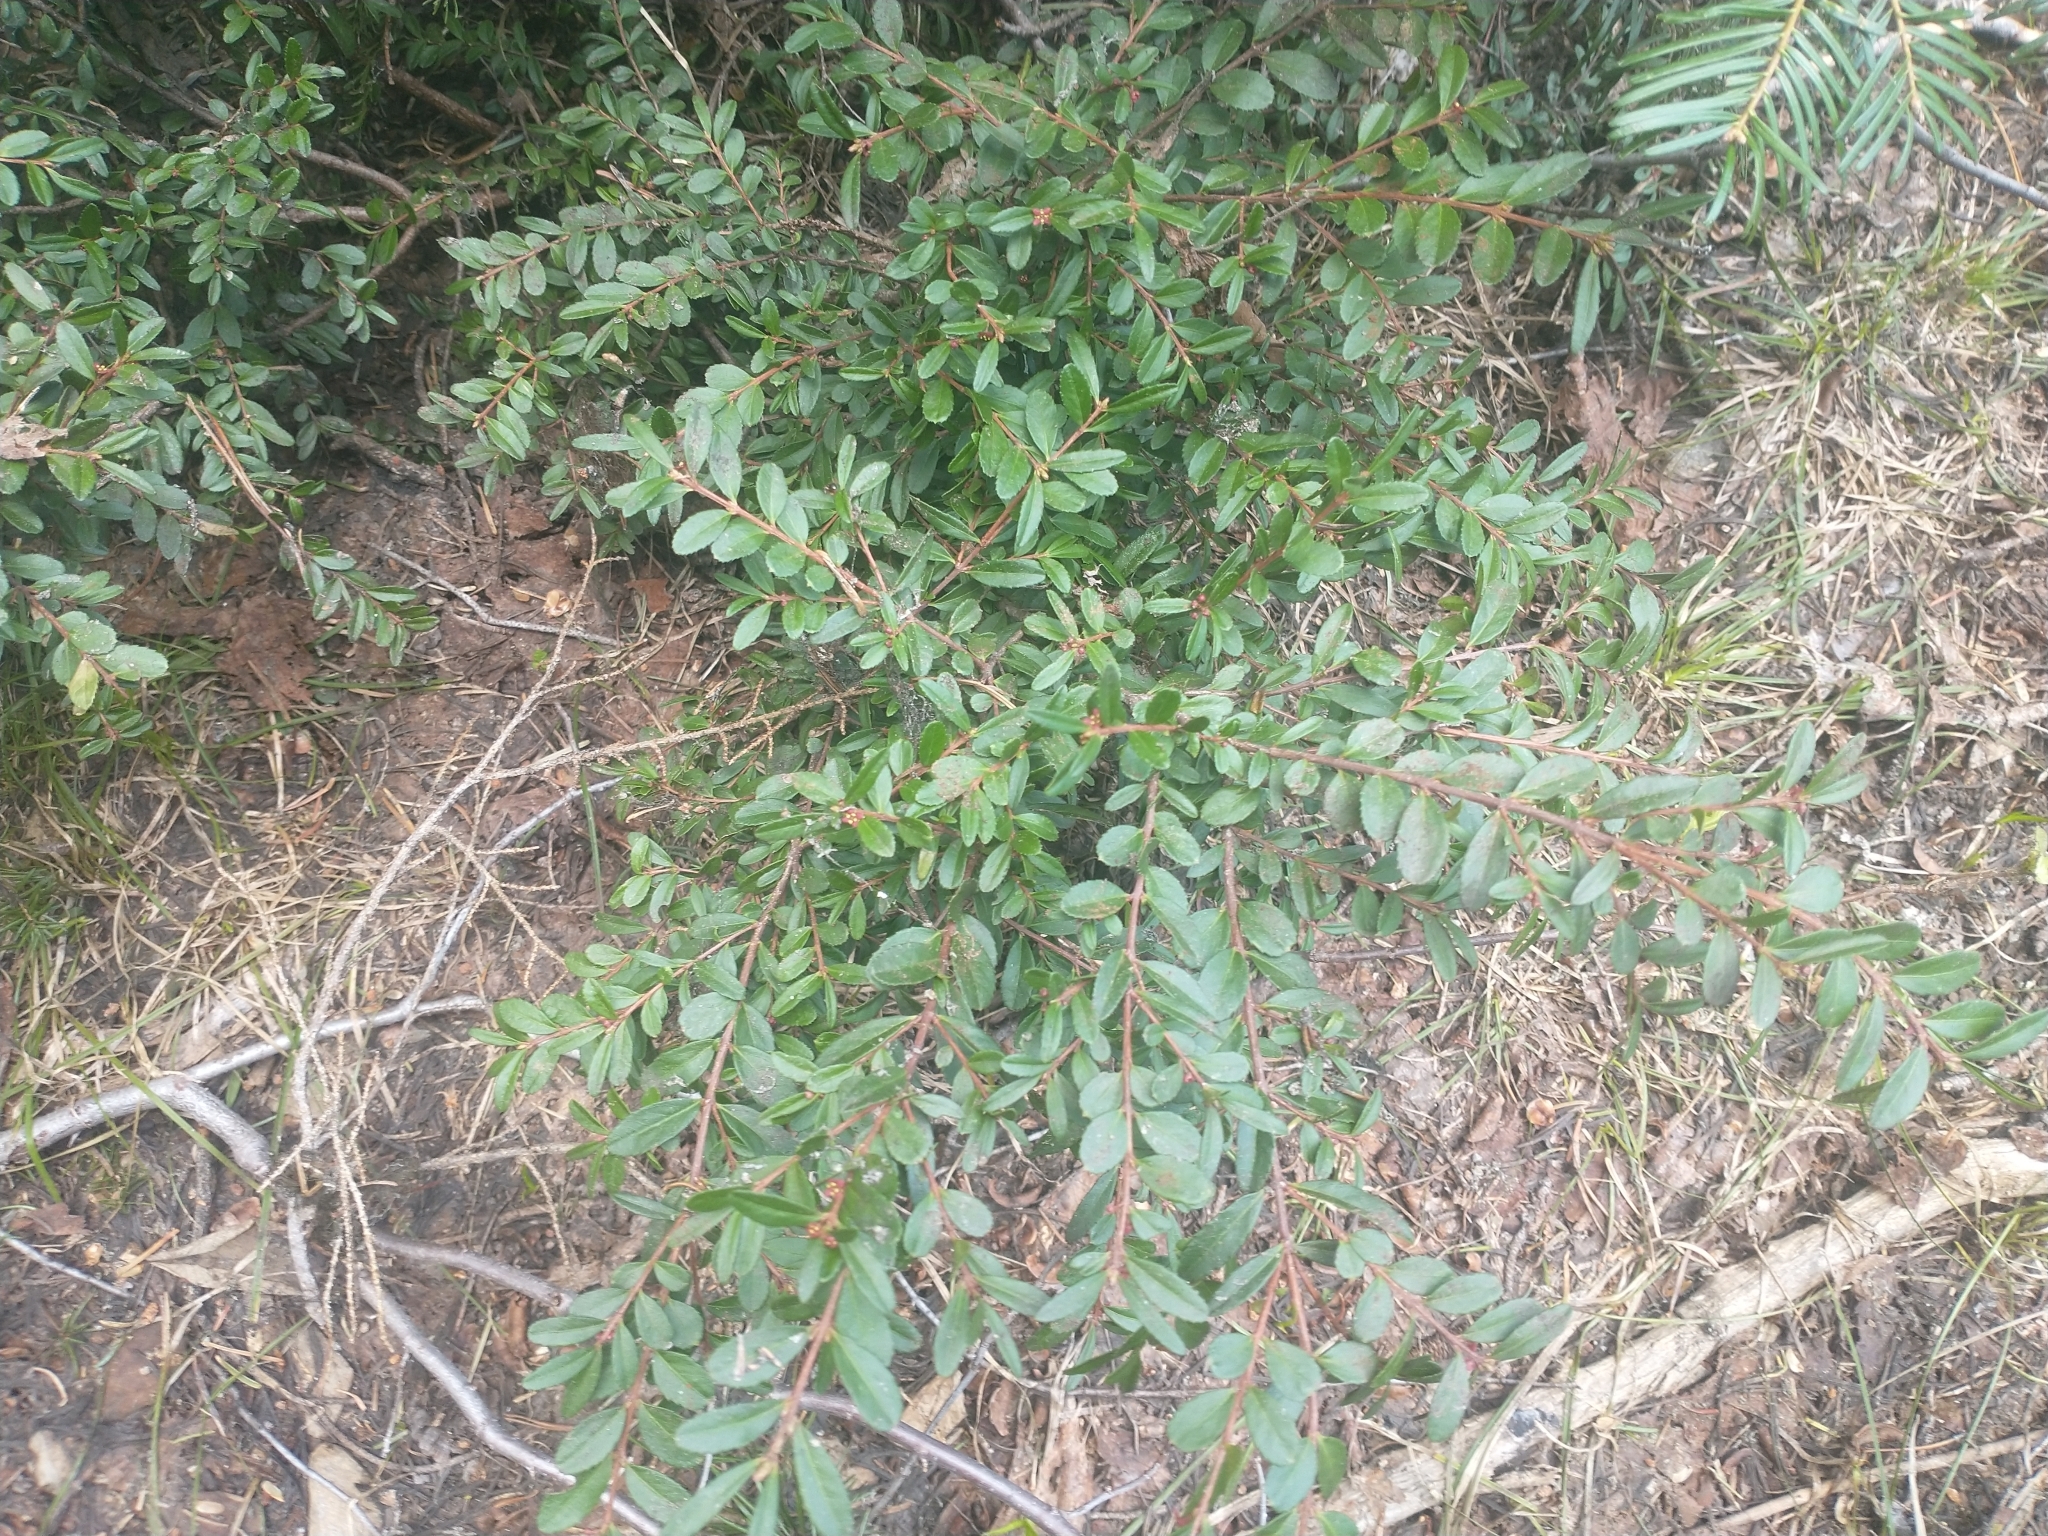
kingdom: Plantae
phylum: Tracheophyta
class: Magnoliopsida
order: Celastrales
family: Celastraceae
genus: Paxistima
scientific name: Paxistima myrsinites
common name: Mountain-lover
